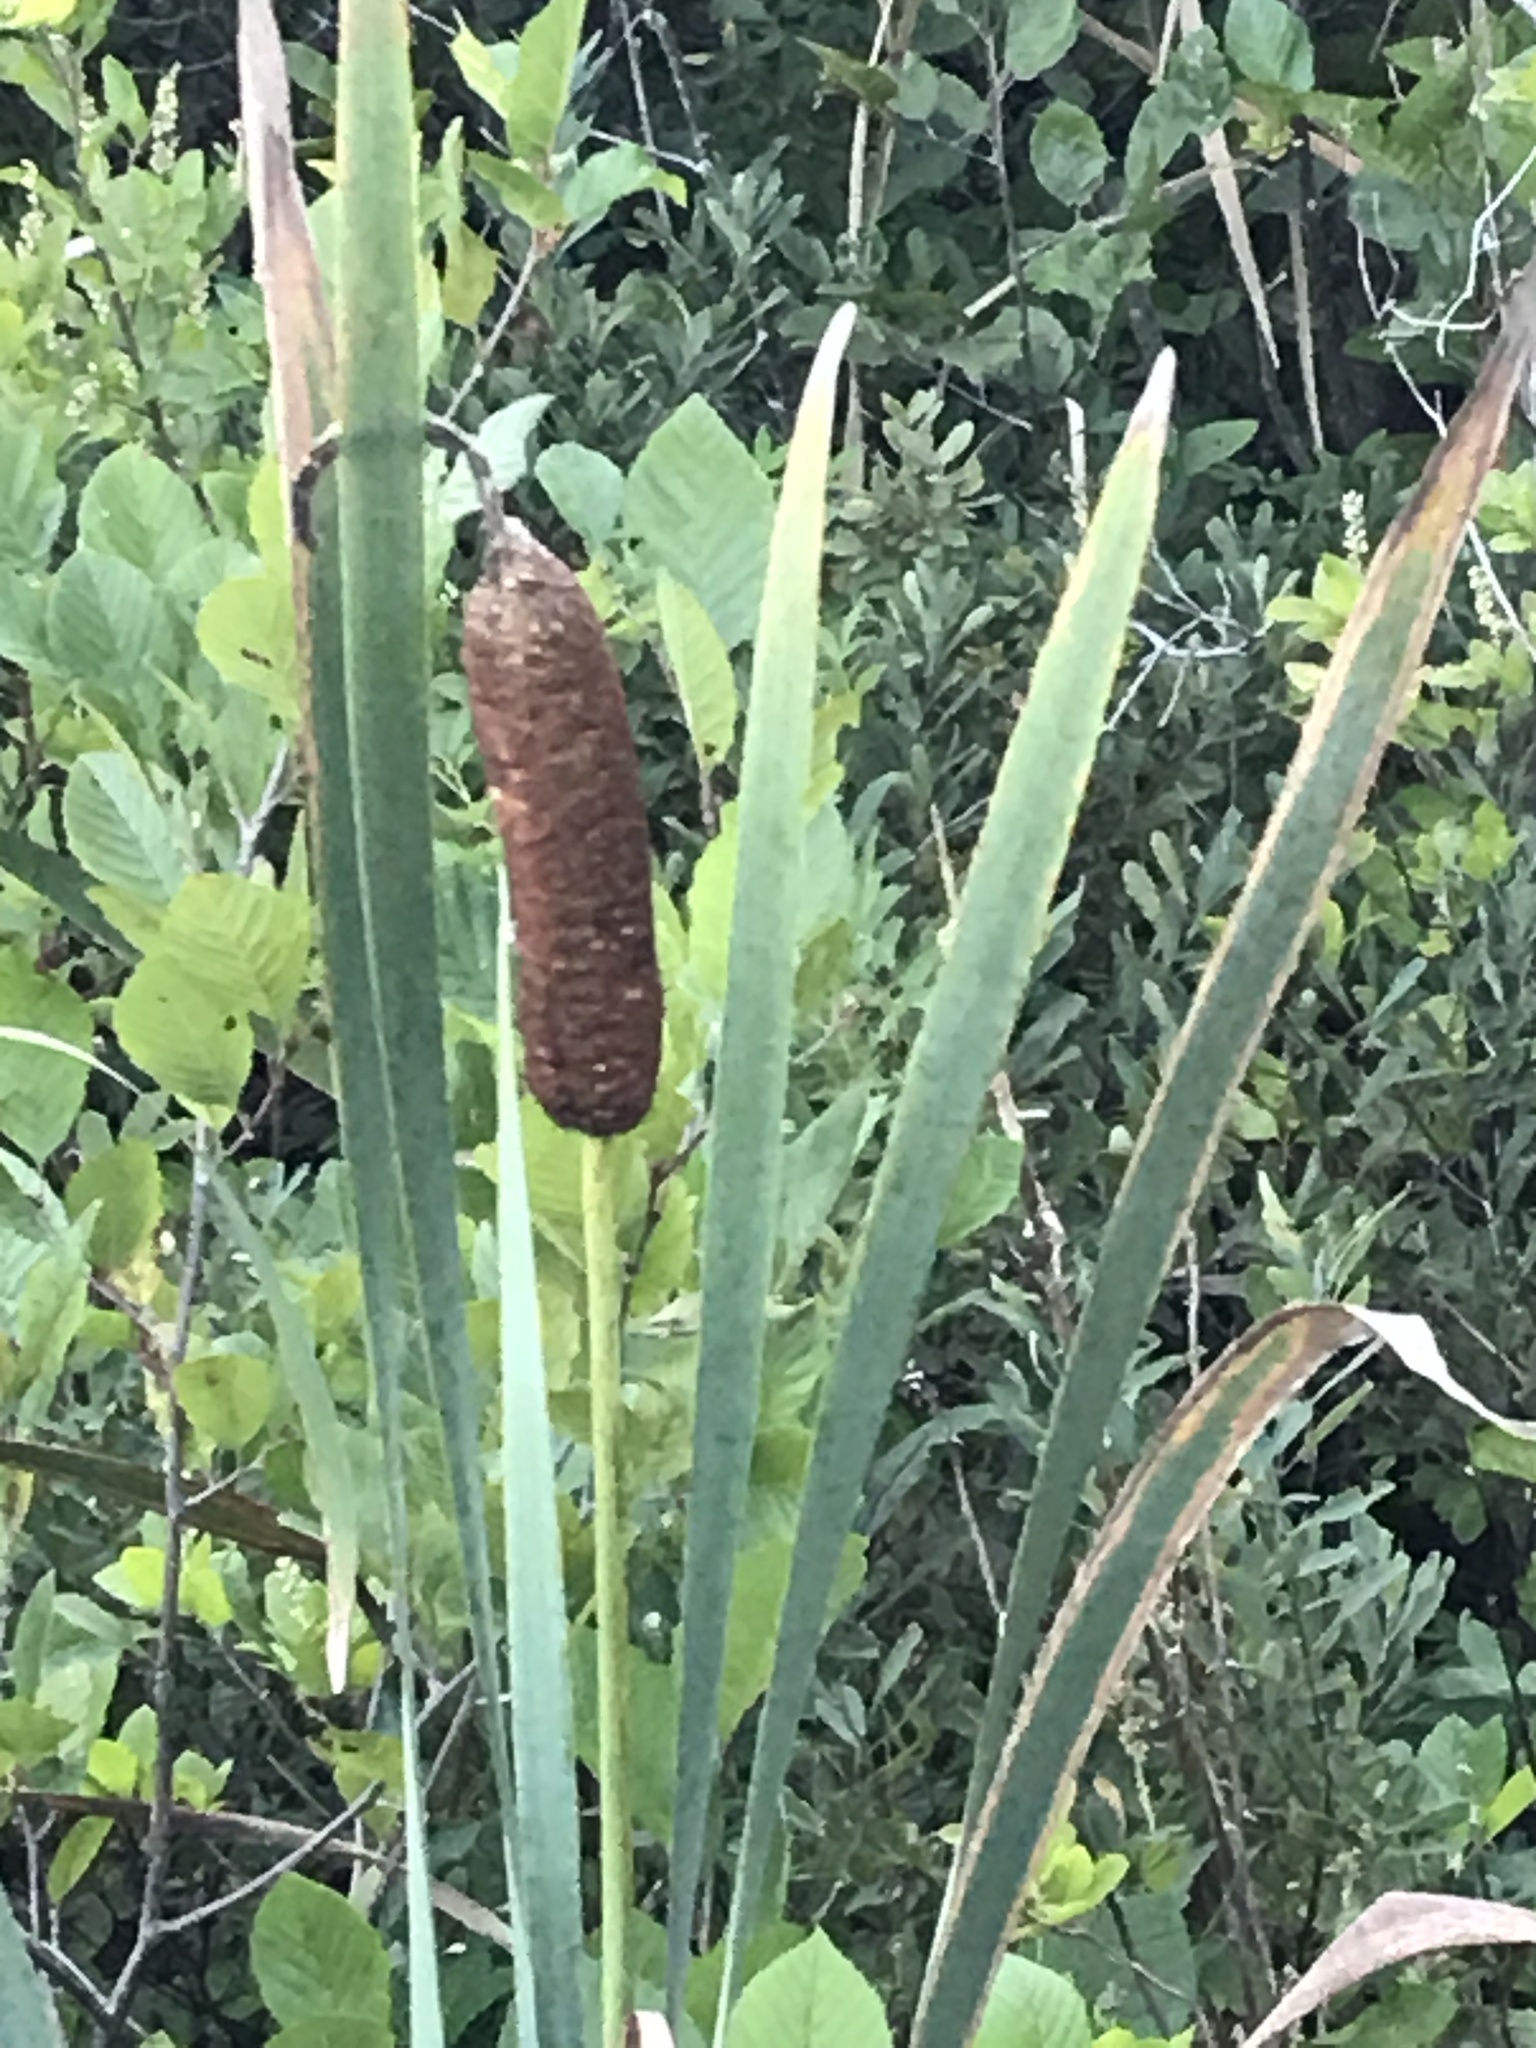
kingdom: Plantae
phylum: Tracheophyta
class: Liliopsida
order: Poales
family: Typhaceae
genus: Typha
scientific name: Typha latifolia
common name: Broadleaf cattail
